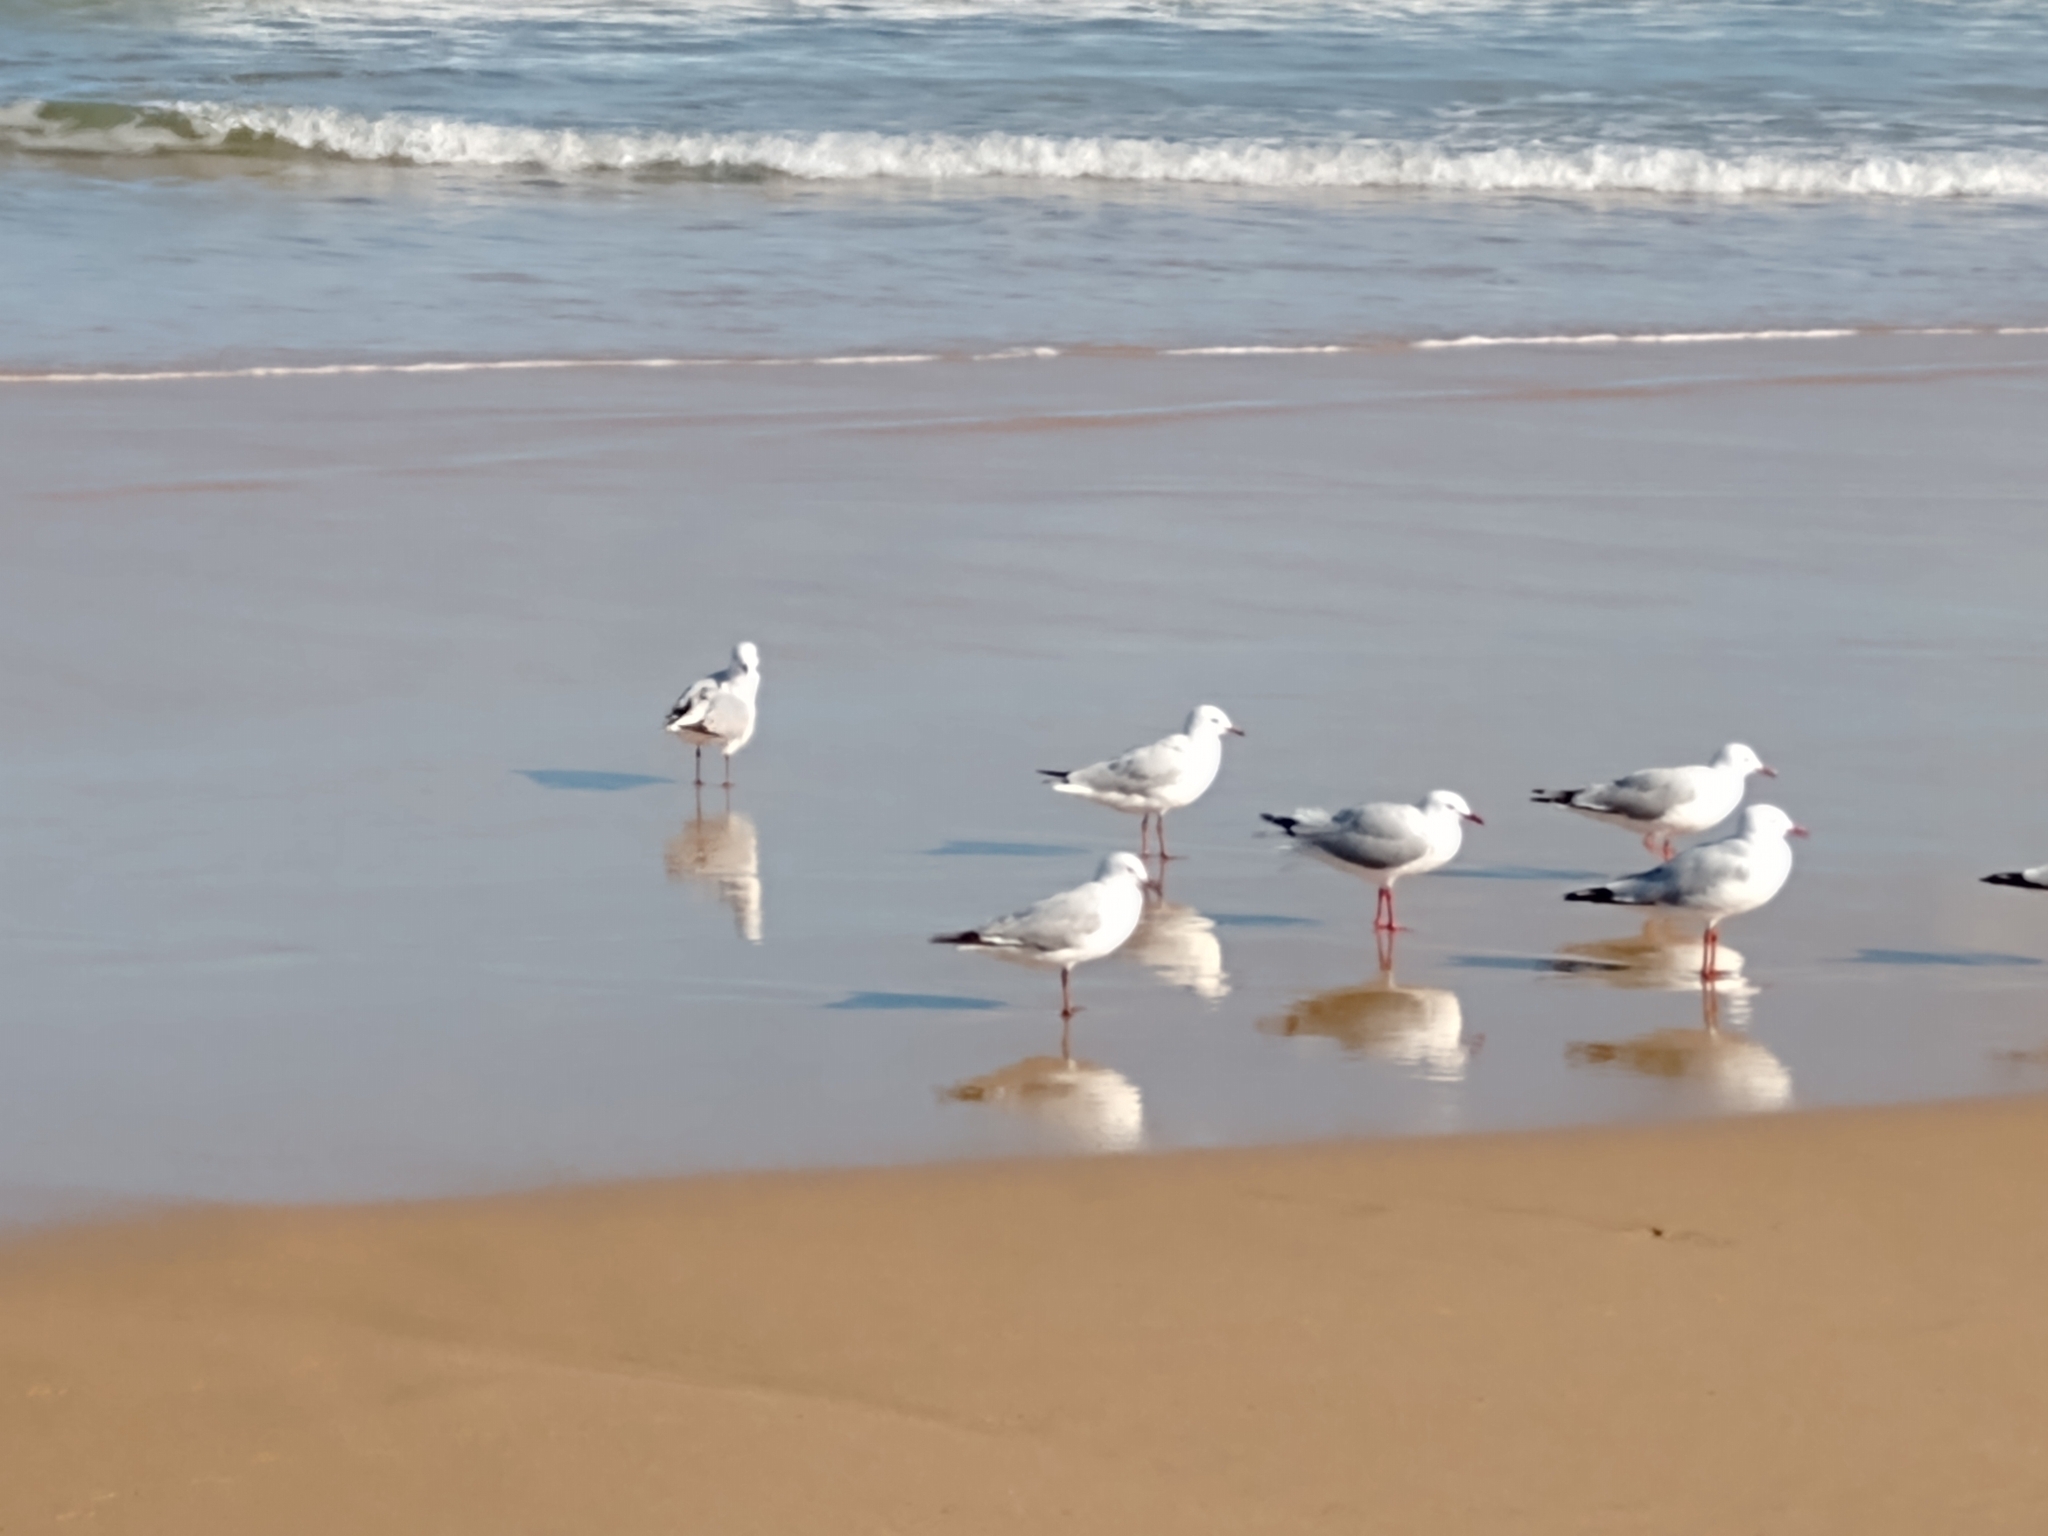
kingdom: Animalia
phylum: Chordata
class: Aves
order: Charadriiformes
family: Laridae
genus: Chroicocephalus
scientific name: Chroicocephalus novaehollandiae
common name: Silver gull
